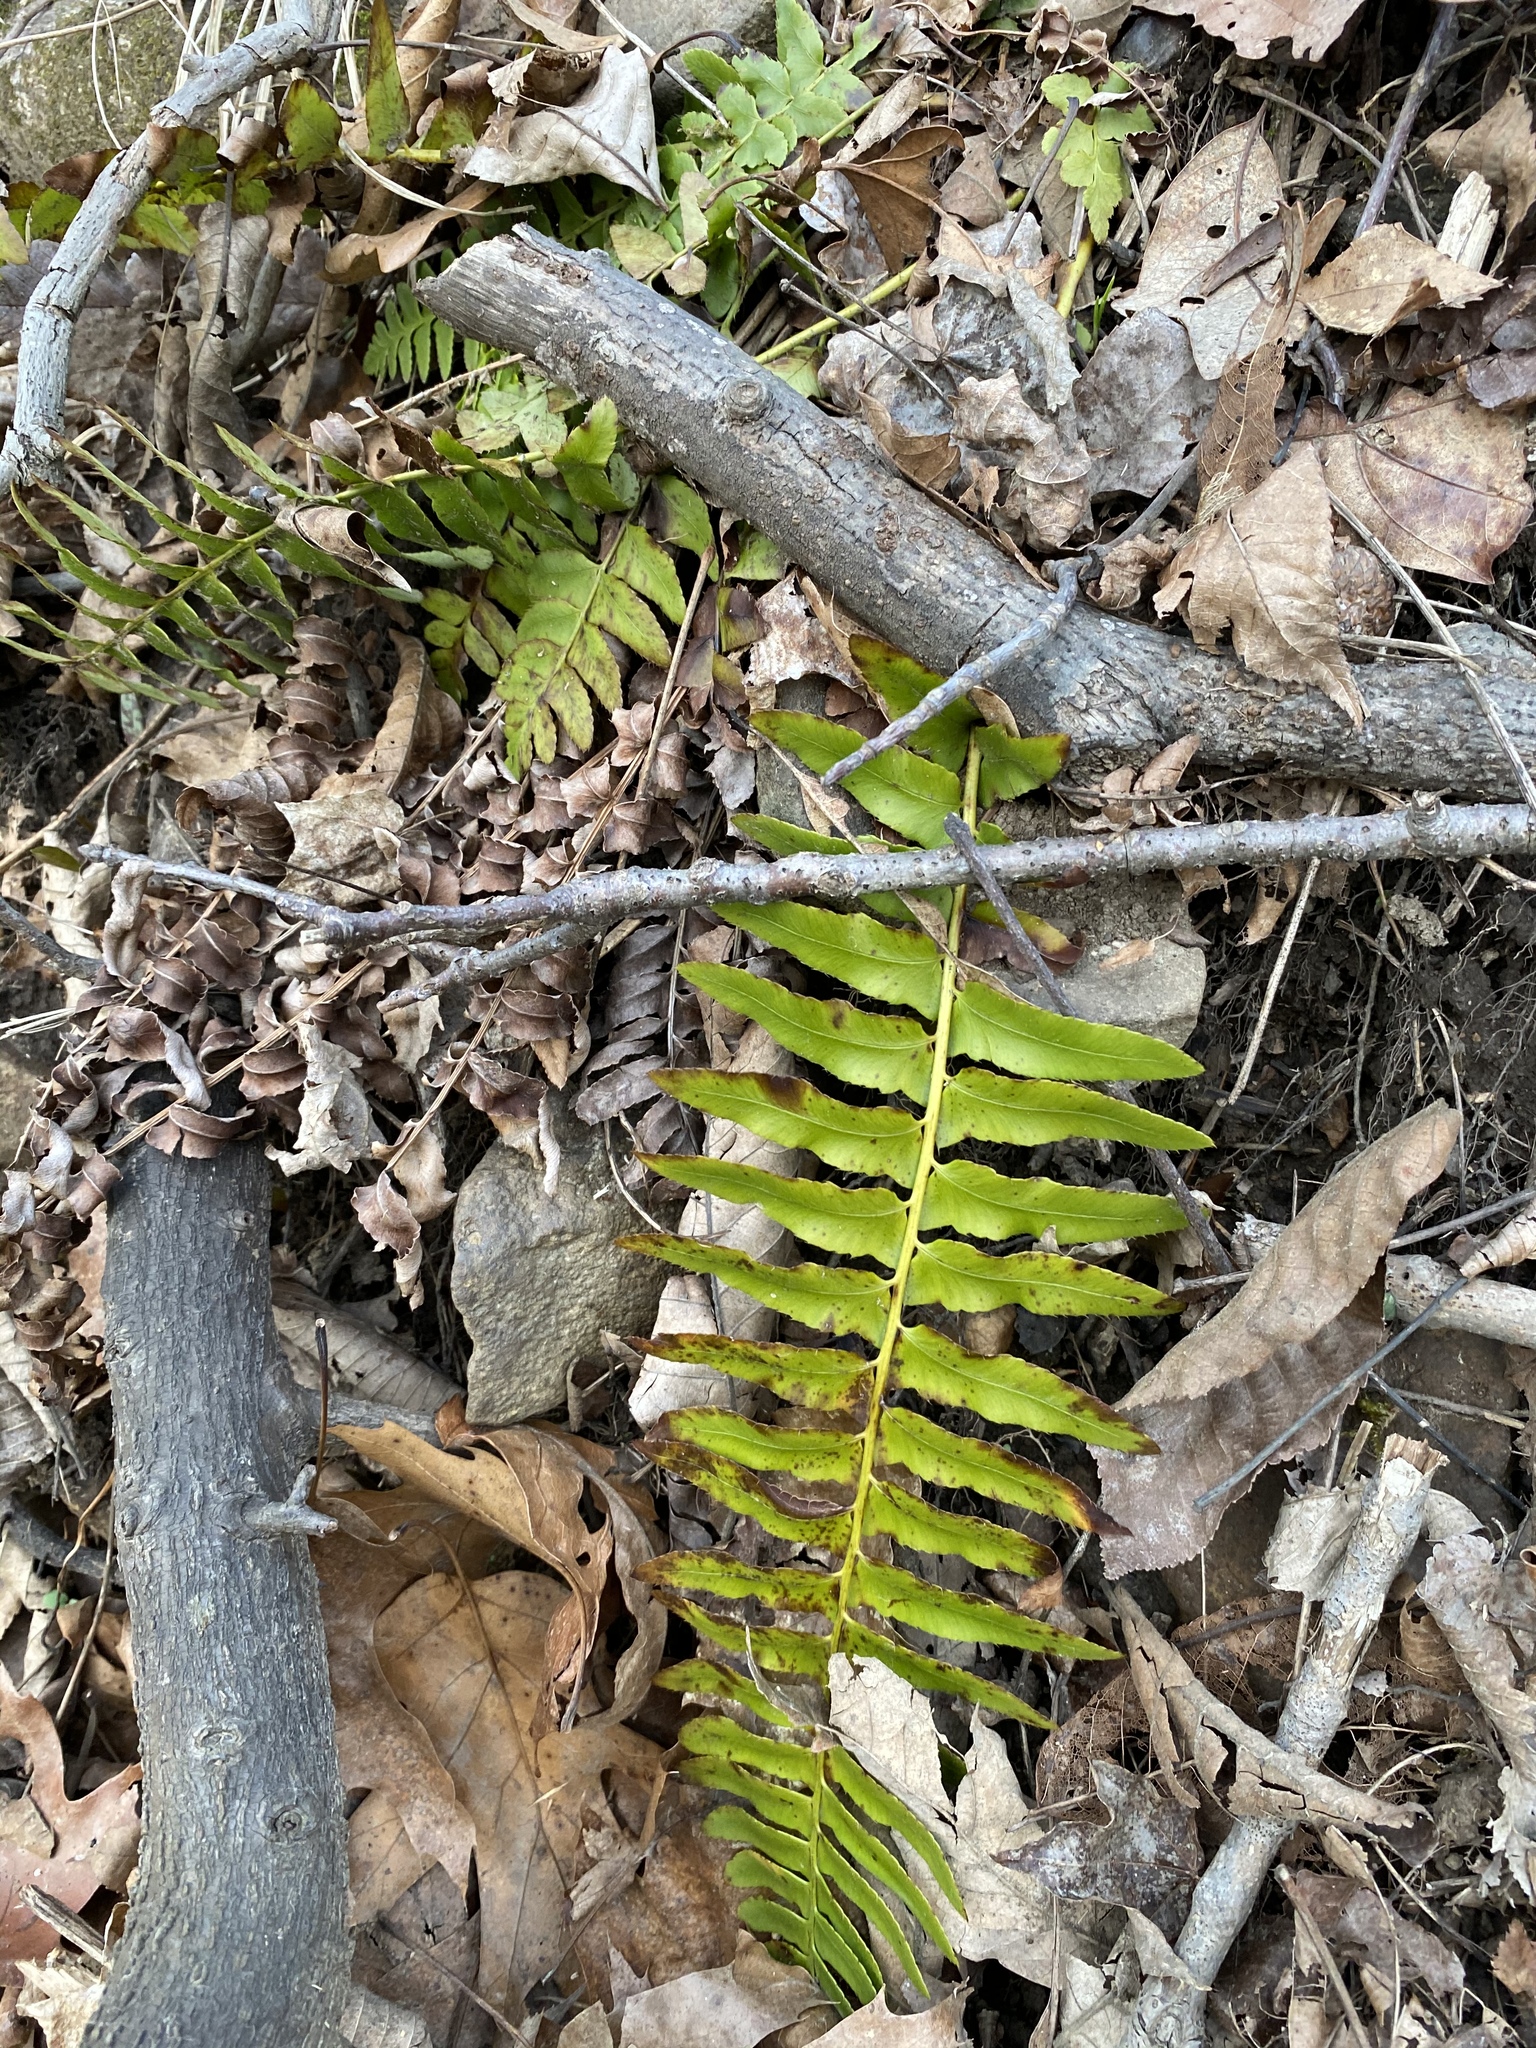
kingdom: Plantae
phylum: Tracheophyta
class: Polypodiopsida
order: Polypodiales
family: Dryopteridaceae
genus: Polystichum
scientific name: Polystichum acrostichoides
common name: Christmas fern
